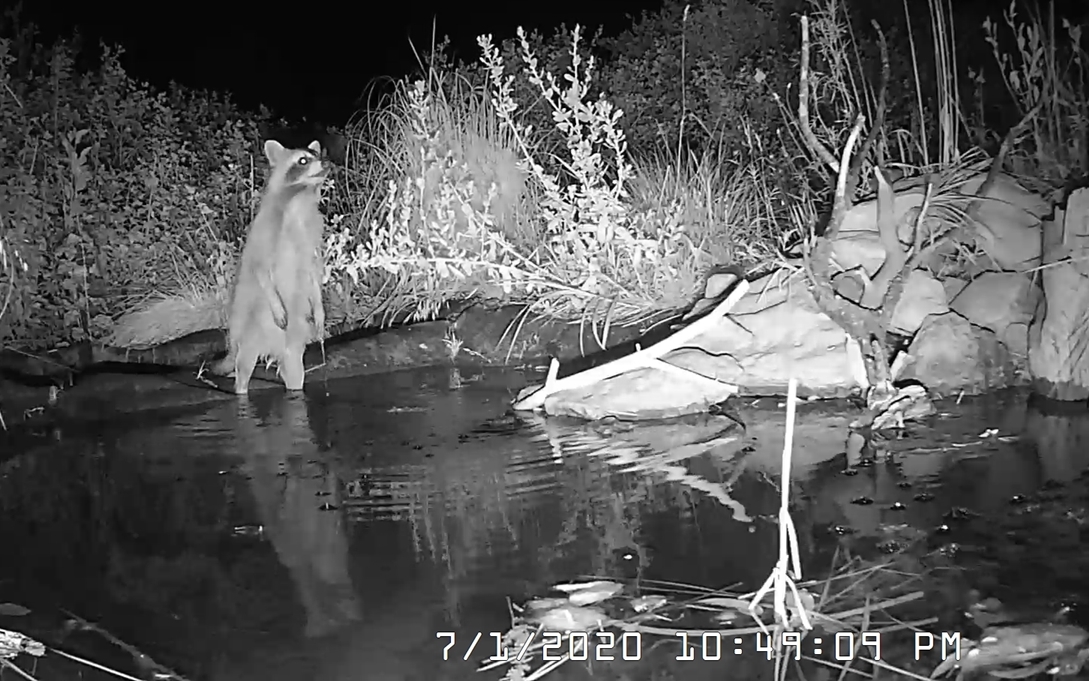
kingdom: Animalia
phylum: Chordata
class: Mammalia
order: Carnivora
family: Procyonidae
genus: Procyon
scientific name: Procyon lotor
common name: Raccoon
